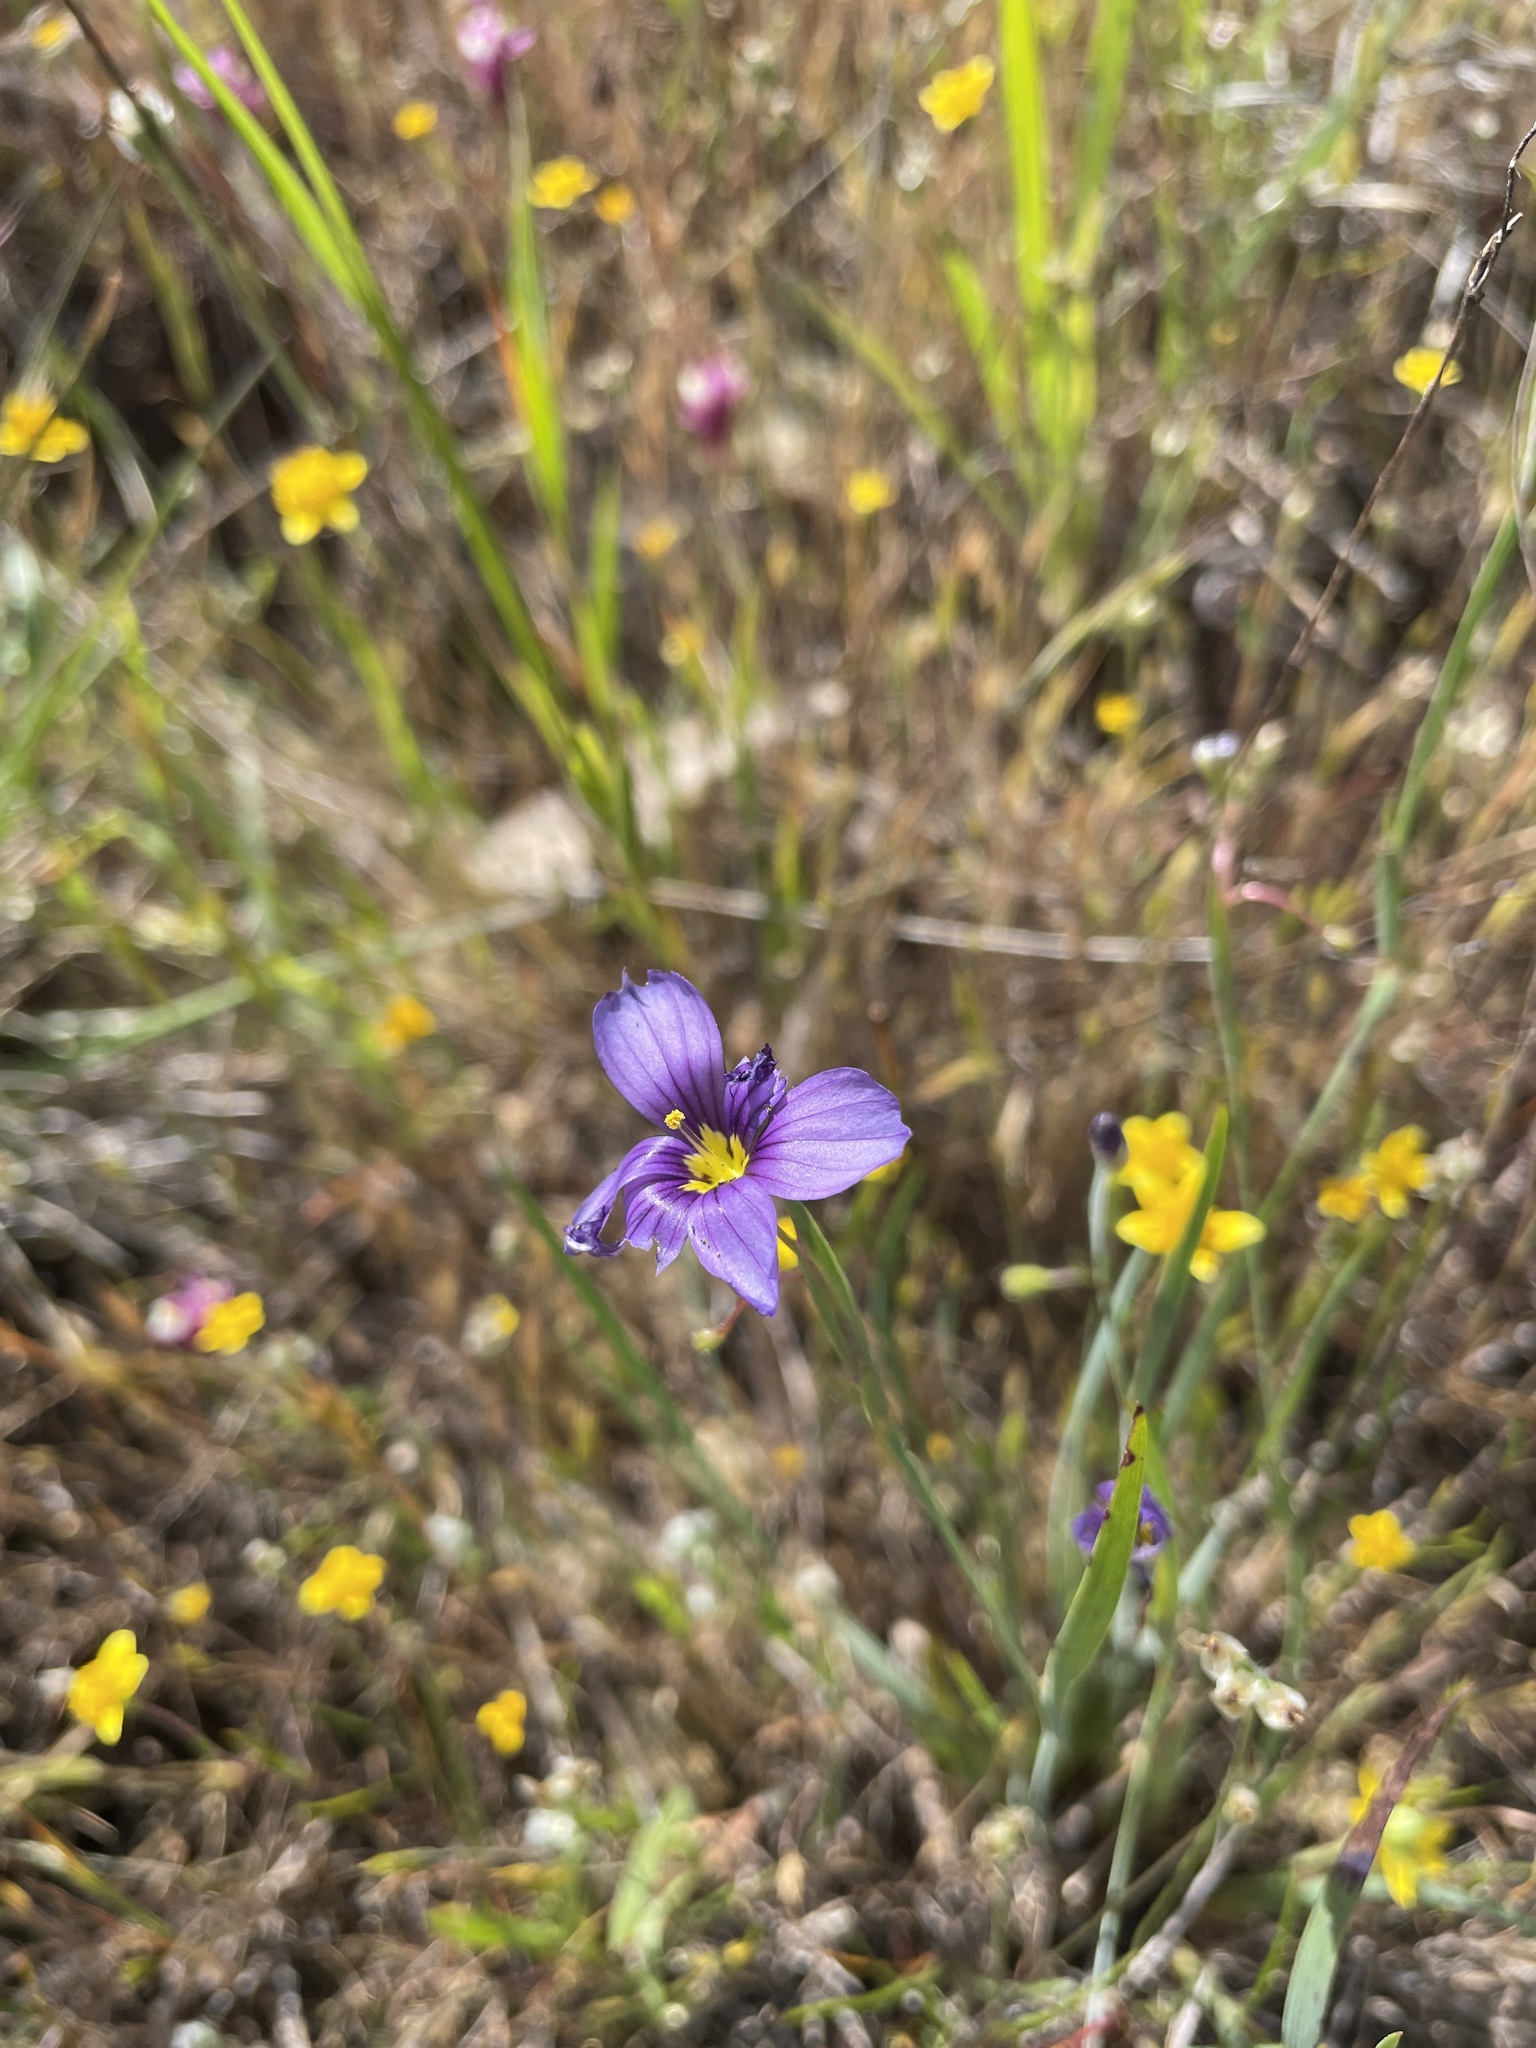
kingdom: Plantae
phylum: Tracheophyta
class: Liliopsida
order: Asparagales
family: Iridaceae
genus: Sisyrinchium
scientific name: Sisyrinchium bellum
